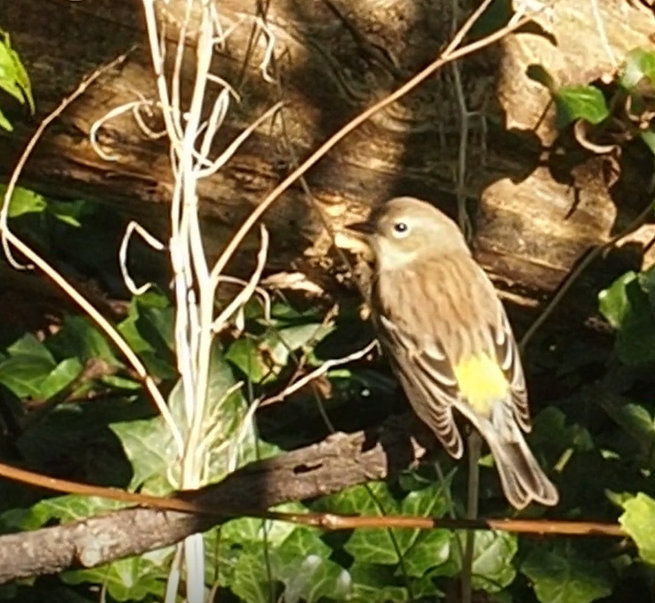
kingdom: Animalia
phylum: Chordata
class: Aves
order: Passeriformes
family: Parulidae
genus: Setophaga
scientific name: Setophaga coronata
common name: Myrtle warbler
